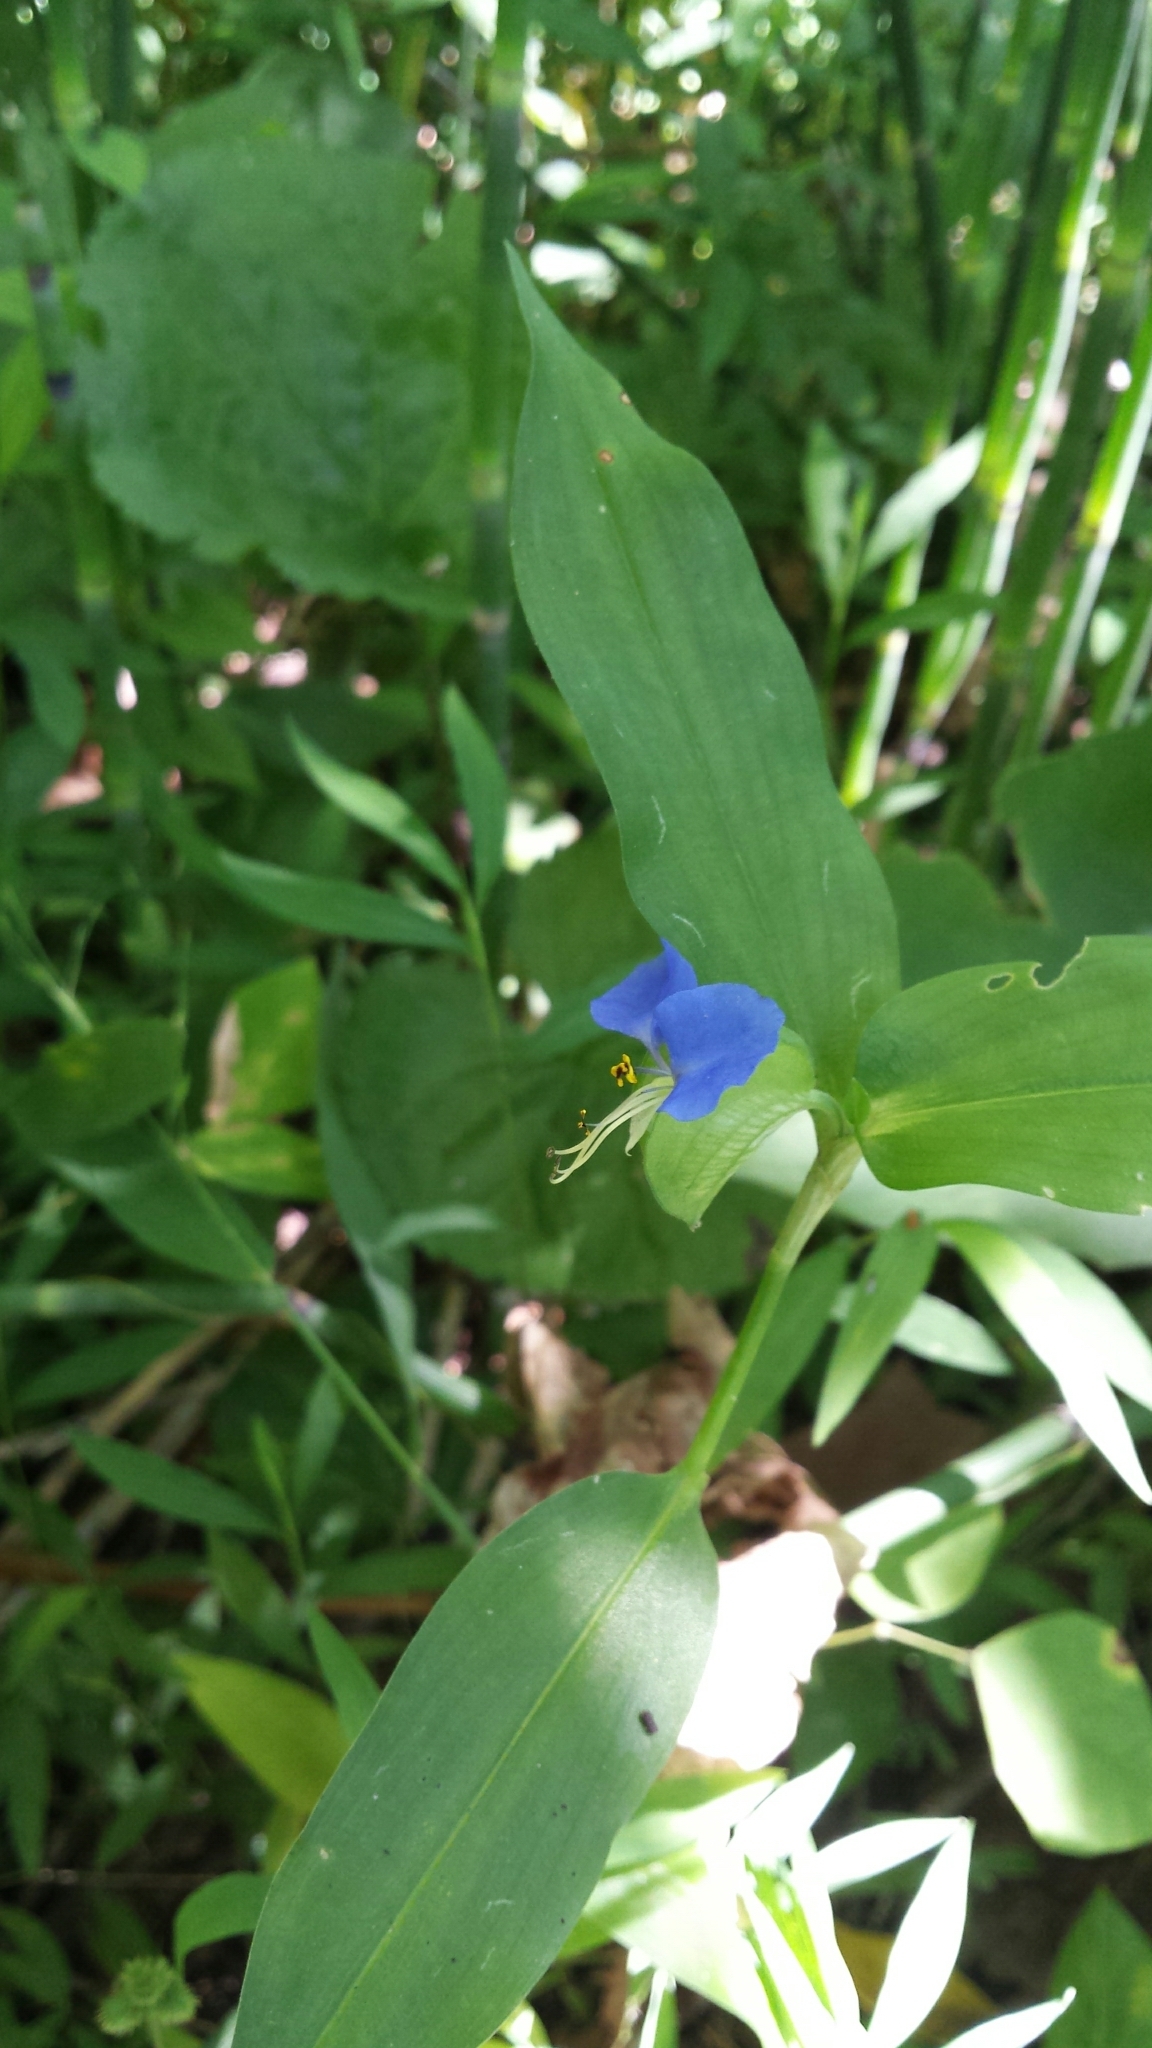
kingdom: Plantae
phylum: Tracheophyta
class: Liliopsida
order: Commelinales
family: Commelinaceae
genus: Commelina
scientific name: Commelina communis
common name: Asiatic dayflower
